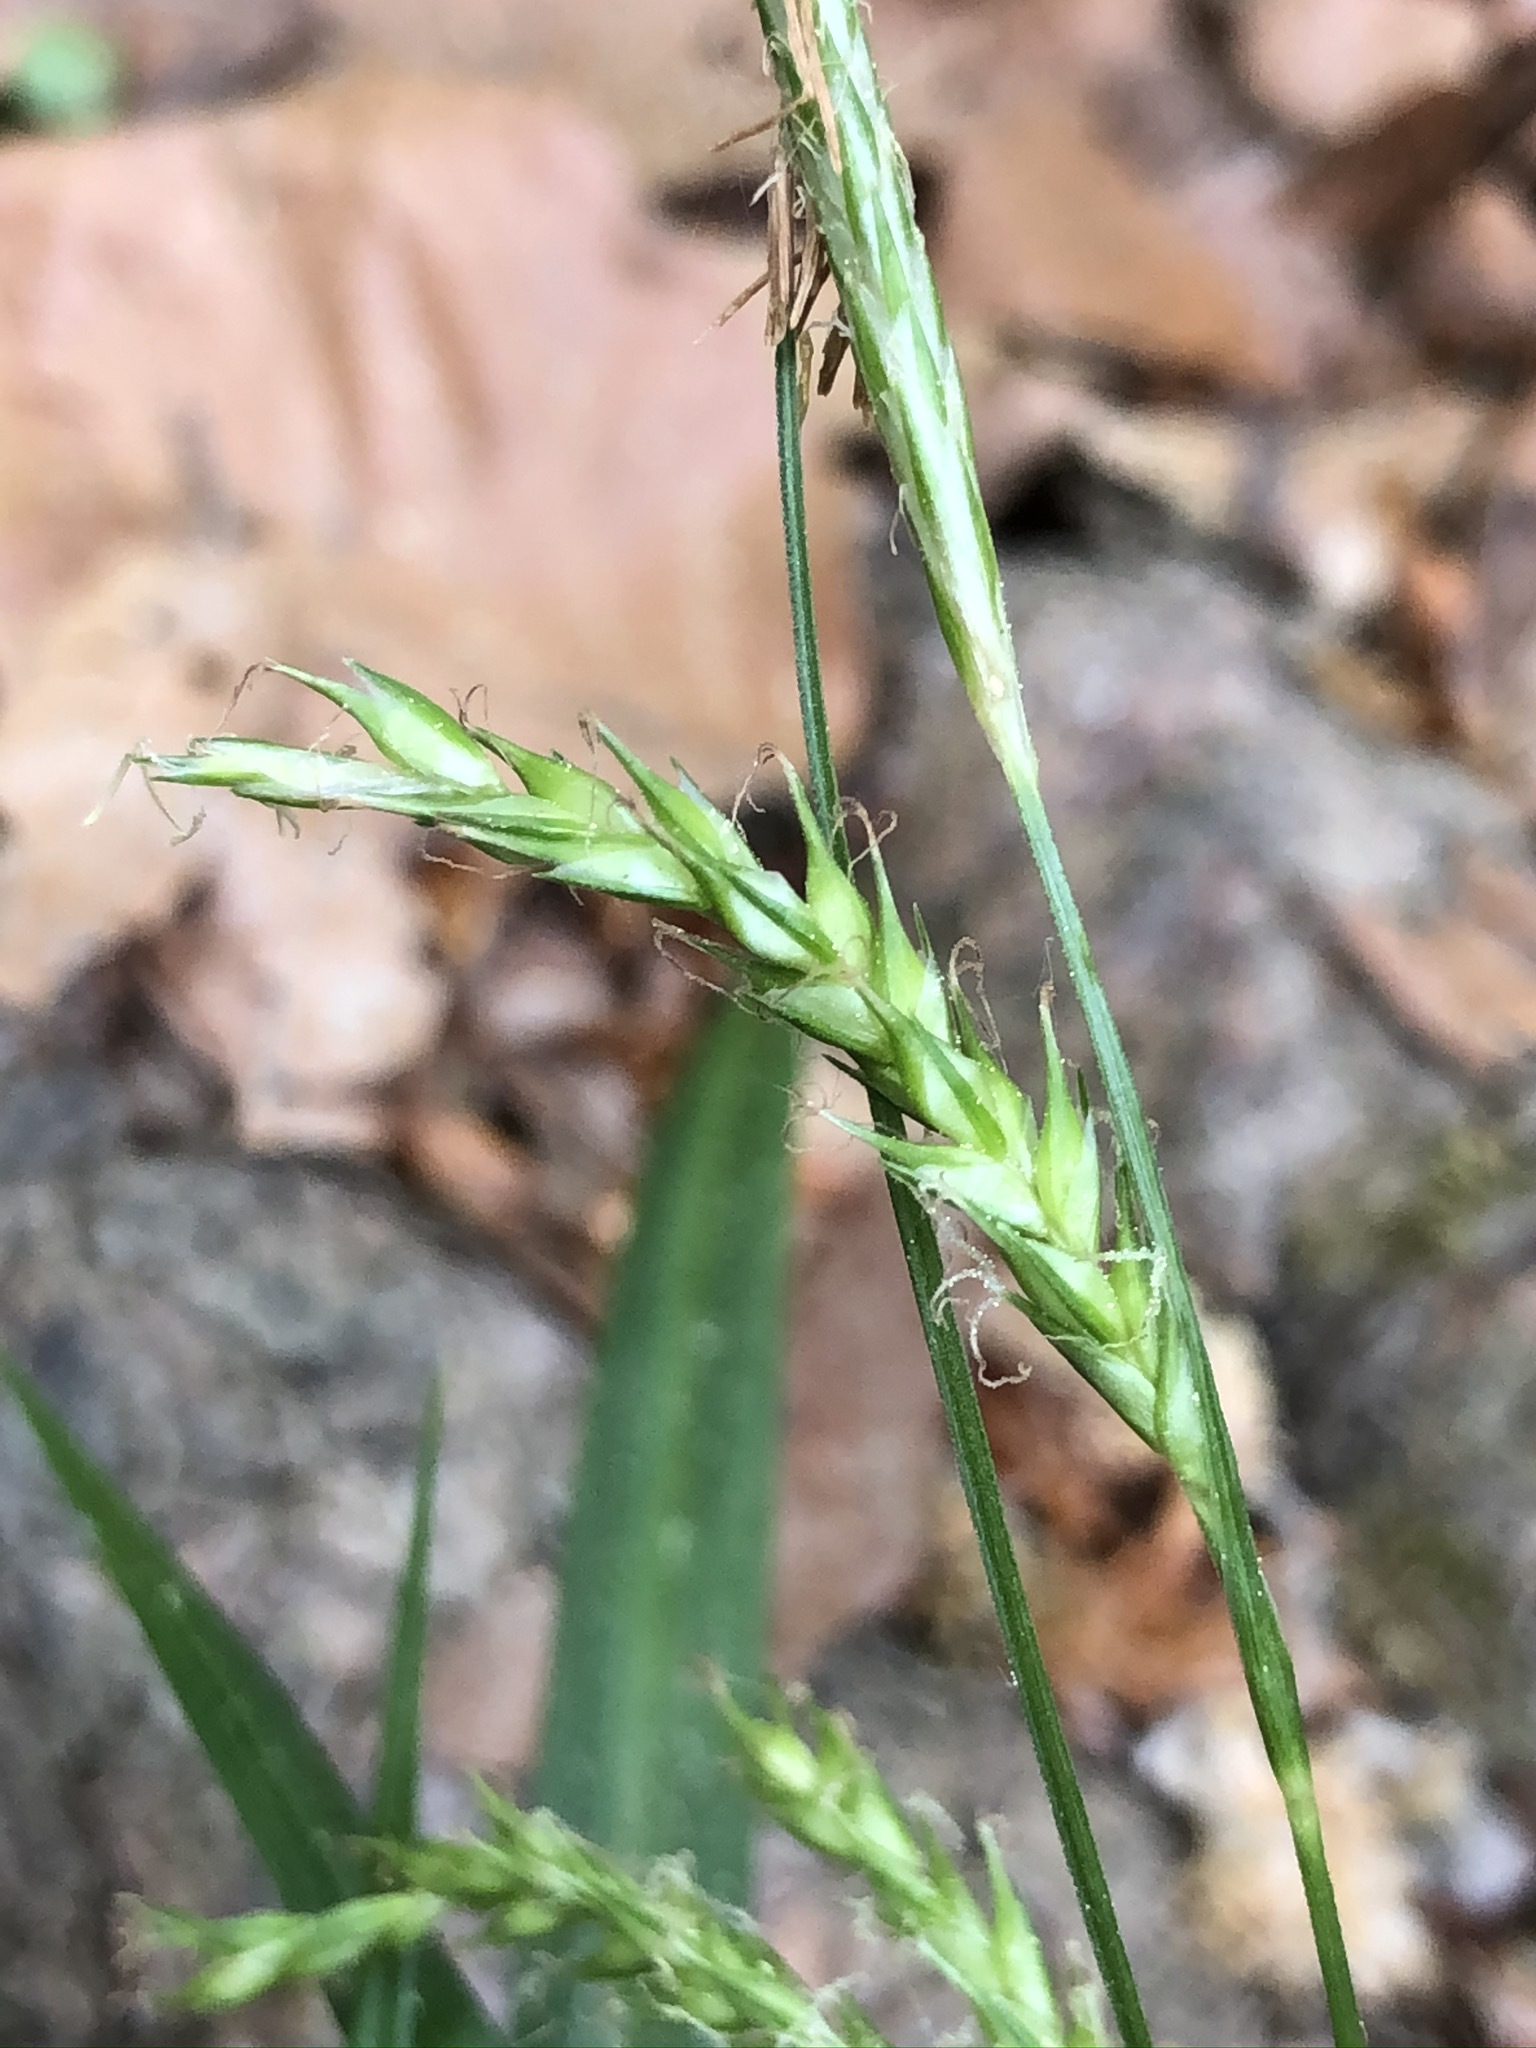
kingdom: Plantae
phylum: Tracheophyta
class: Liliopsida
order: Poales
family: Cyperaceae
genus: Carex
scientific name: Carex sylvatica
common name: Wood-sedge
